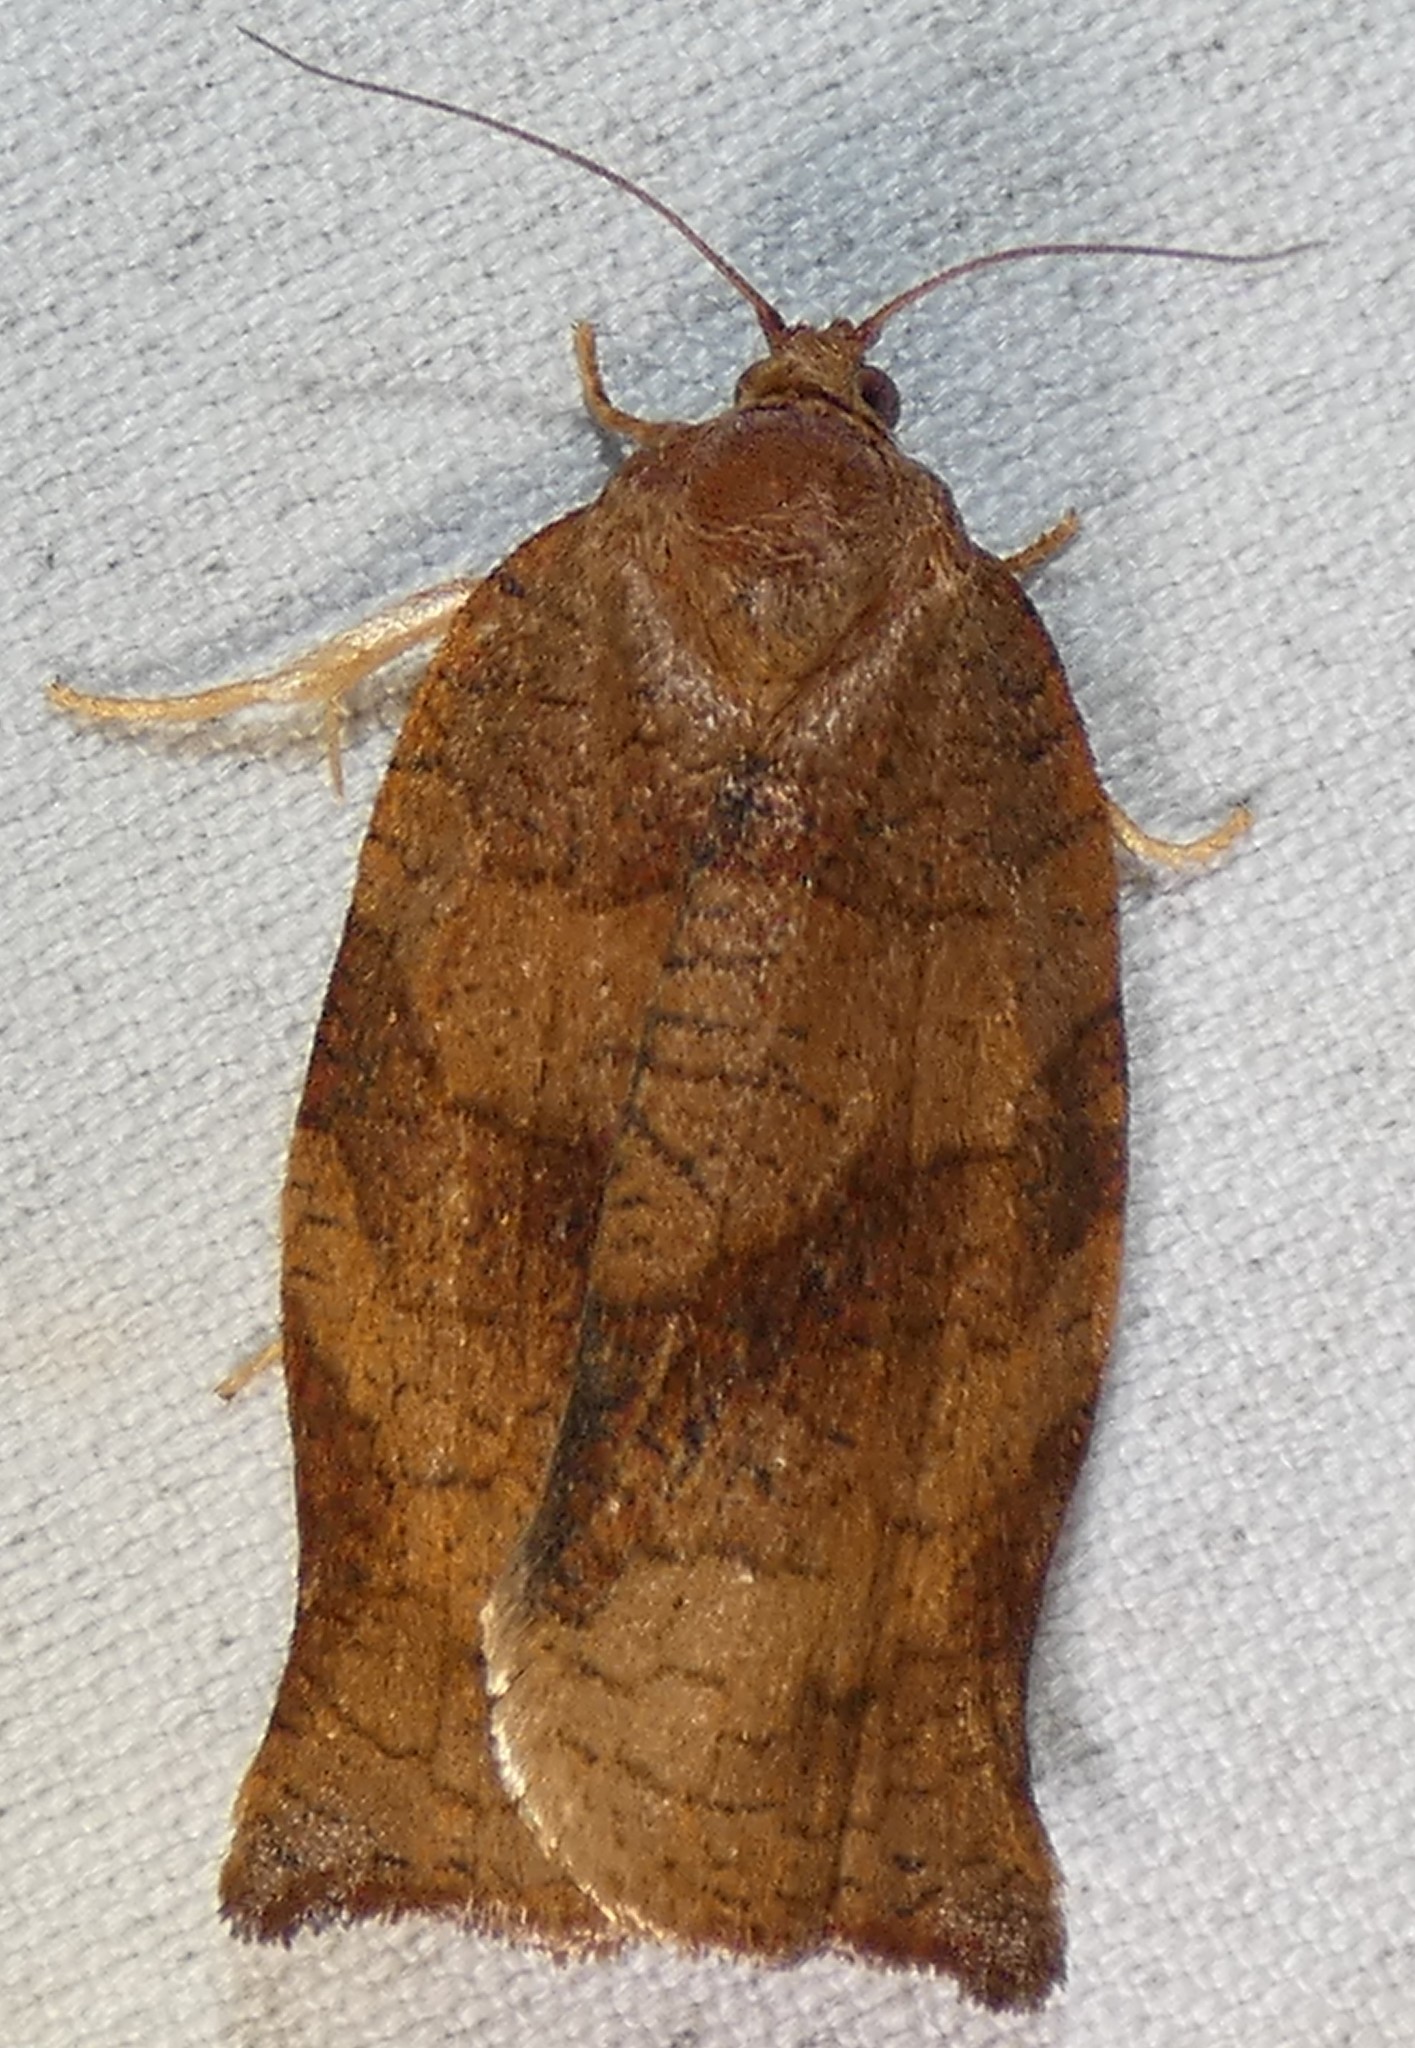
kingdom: Animalia
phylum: Arthropoda
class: Insecta
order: Lepidoptera
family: Tortricidae
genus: Choristoneura
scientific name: Choristoneura rosaceana
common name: Oblique-banded leafroller moth
